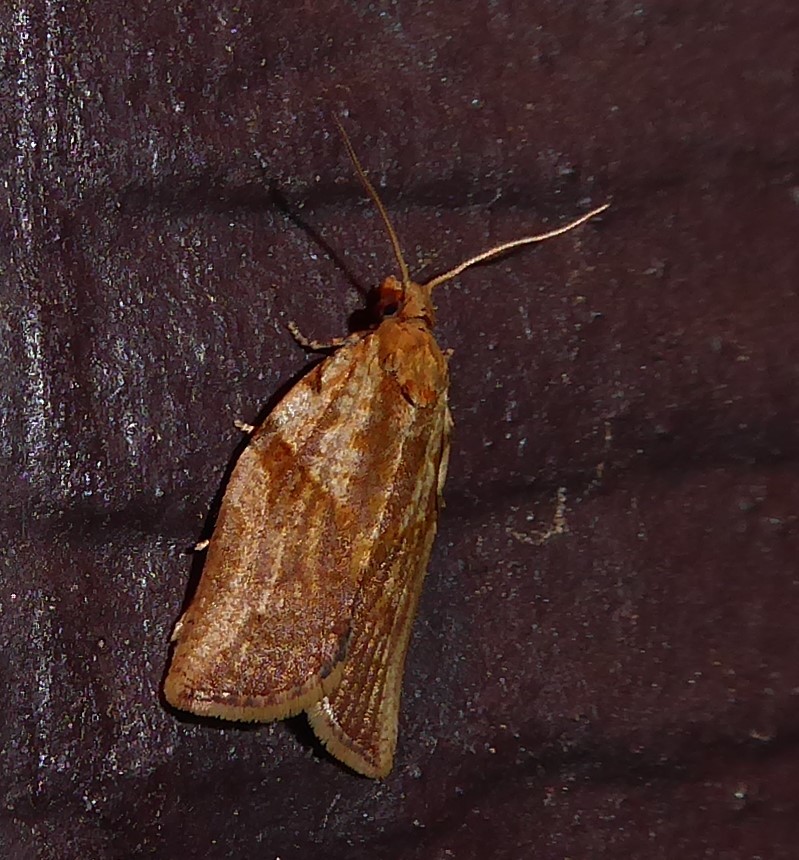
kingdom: Animalia
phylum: Arthropoda
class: Insecta
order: Lepidoptera
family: Tortricidae
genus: Epiphyas
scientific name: Epiphyas postvittana
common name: Light brown apple moth
